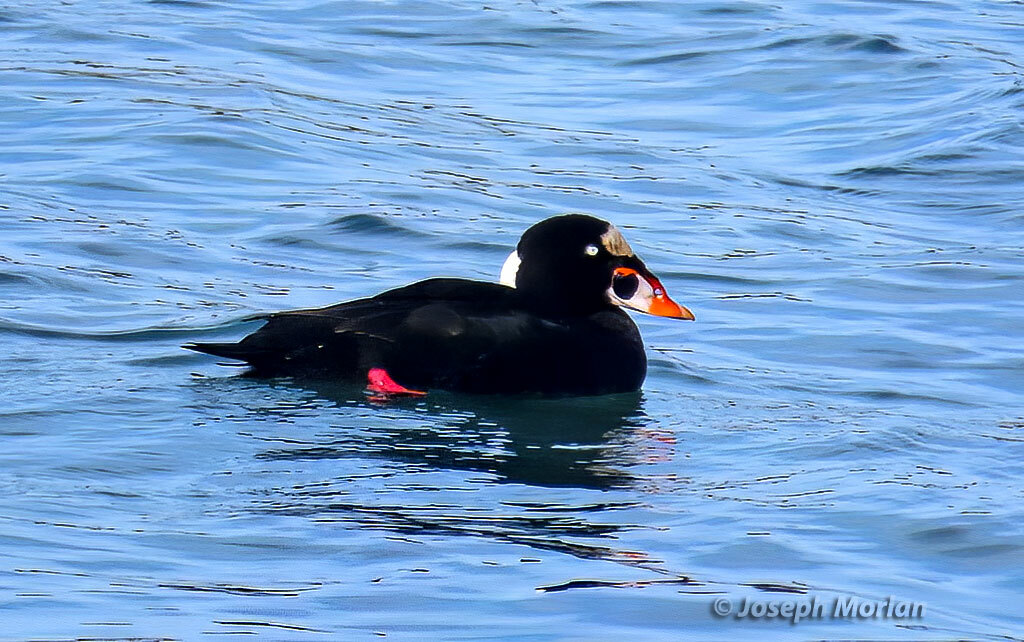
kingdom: Animalia
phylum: Chordata
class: Aves
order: Anseriformes
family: Anatidae
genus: Melanitta
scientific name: Melanitta perspicillata
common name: Surf scoter
